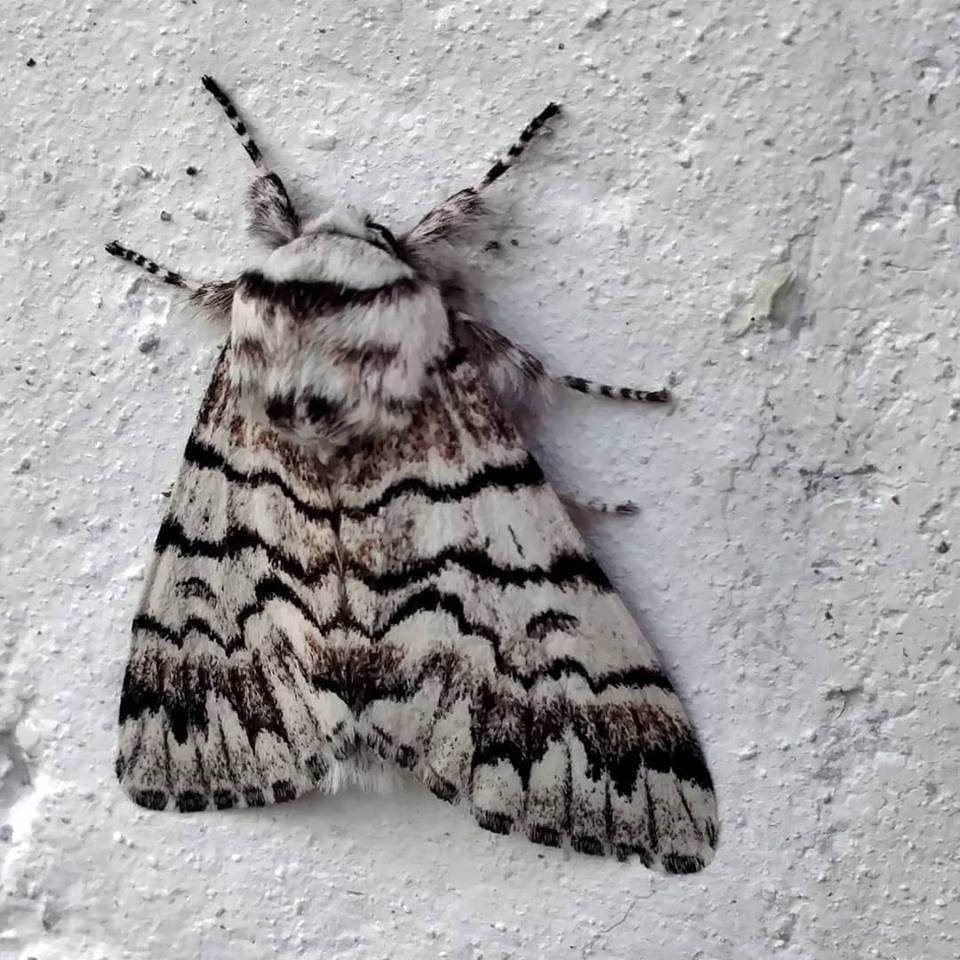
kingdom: Animalia
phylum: Arthropoda
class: Insecta
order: Lepidoptera
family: Noctuidae
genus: Panthea
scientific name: Panthea virginarius
